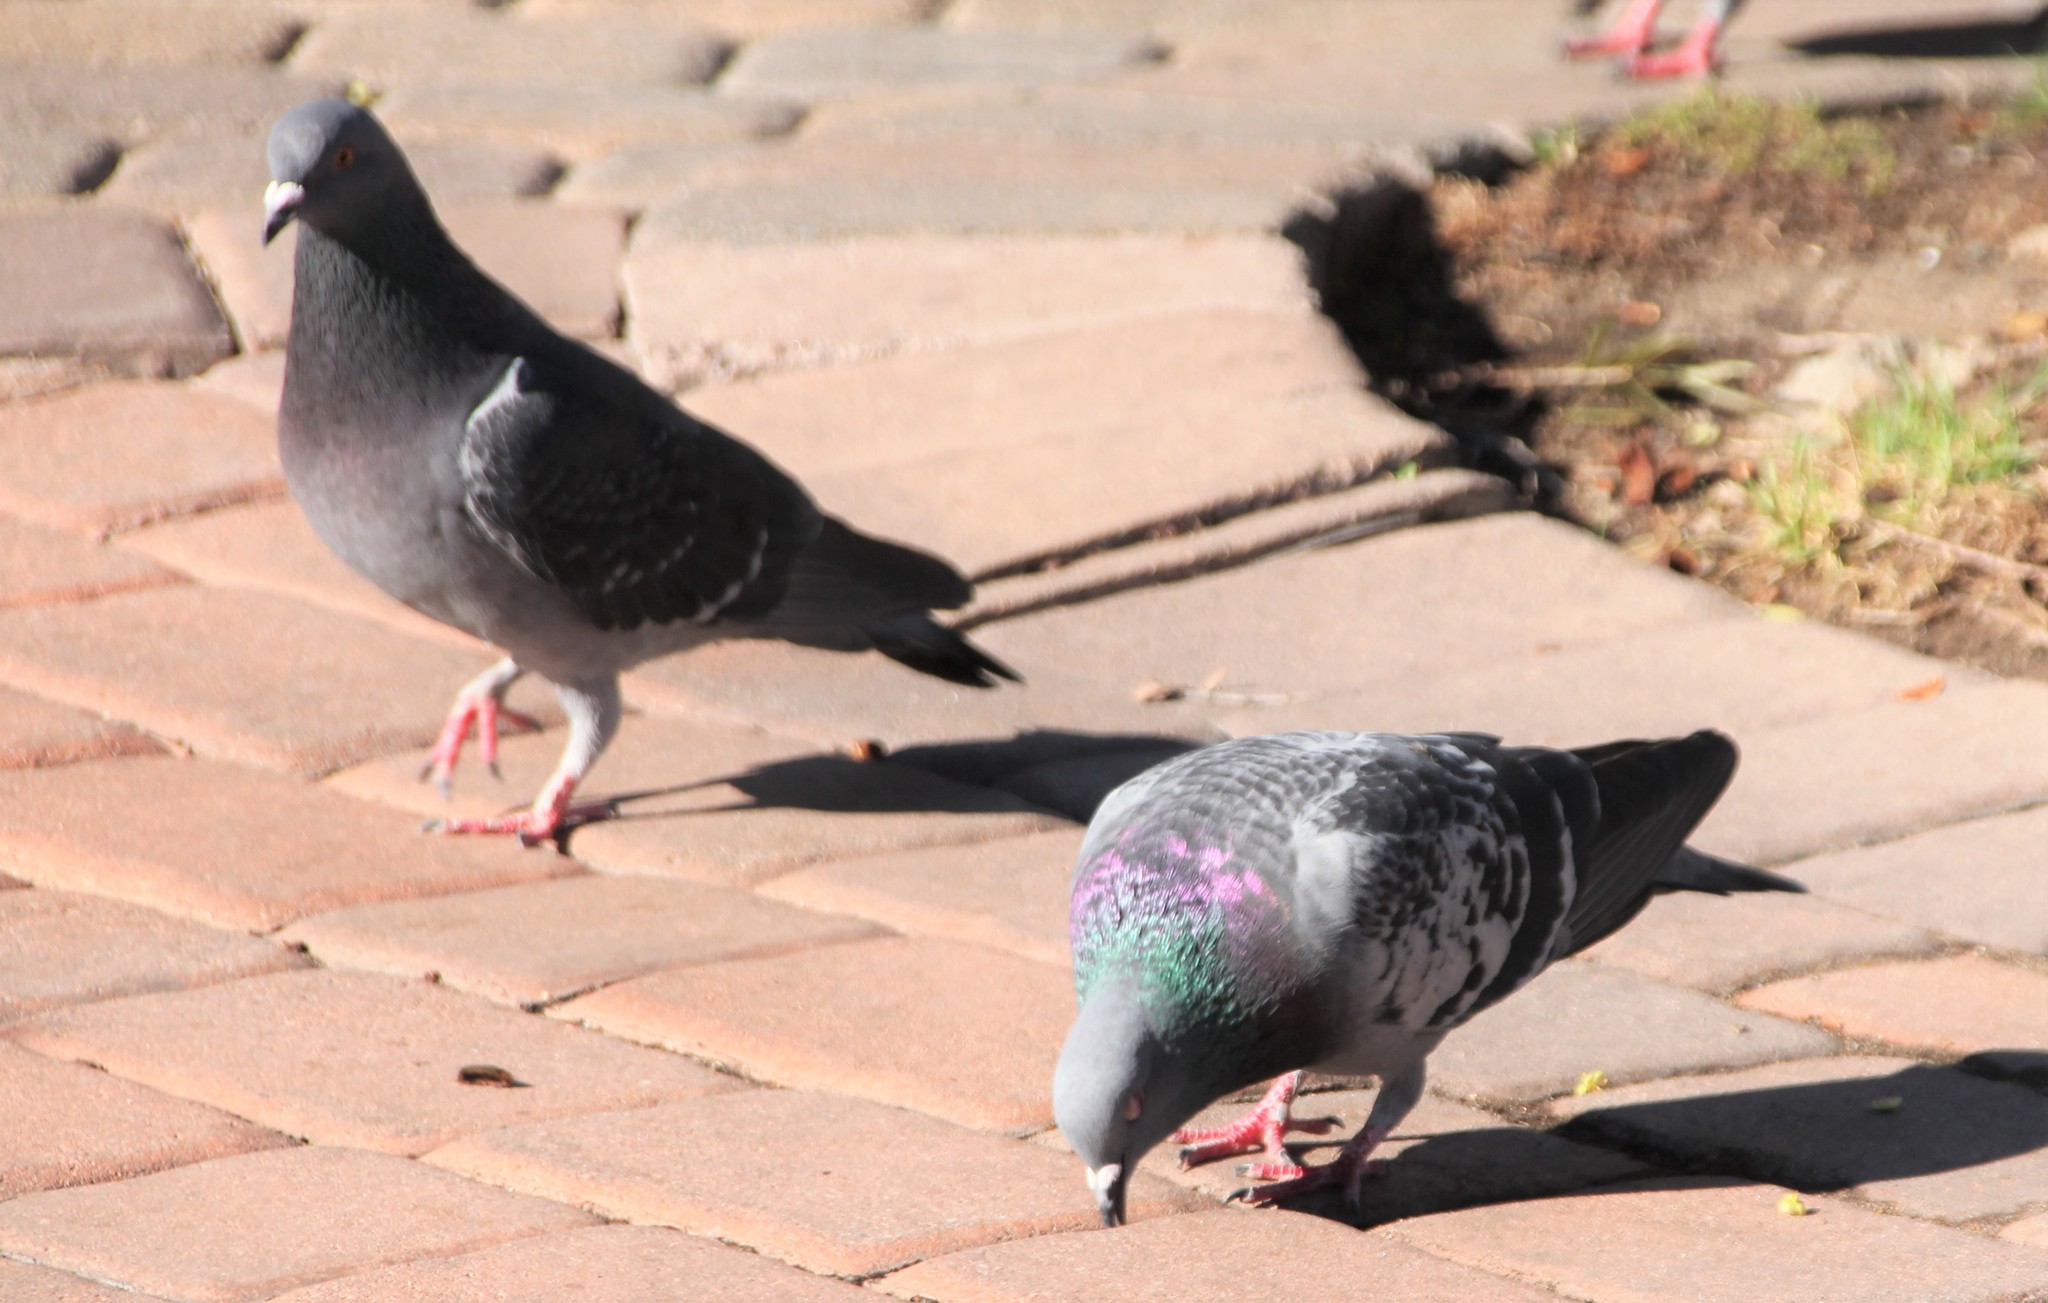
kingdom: Animalia
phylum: Chordata
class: Aves
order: Columbiformes
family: Columbidae
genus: Columba
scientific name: Columba livia
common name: Rock pigeon
